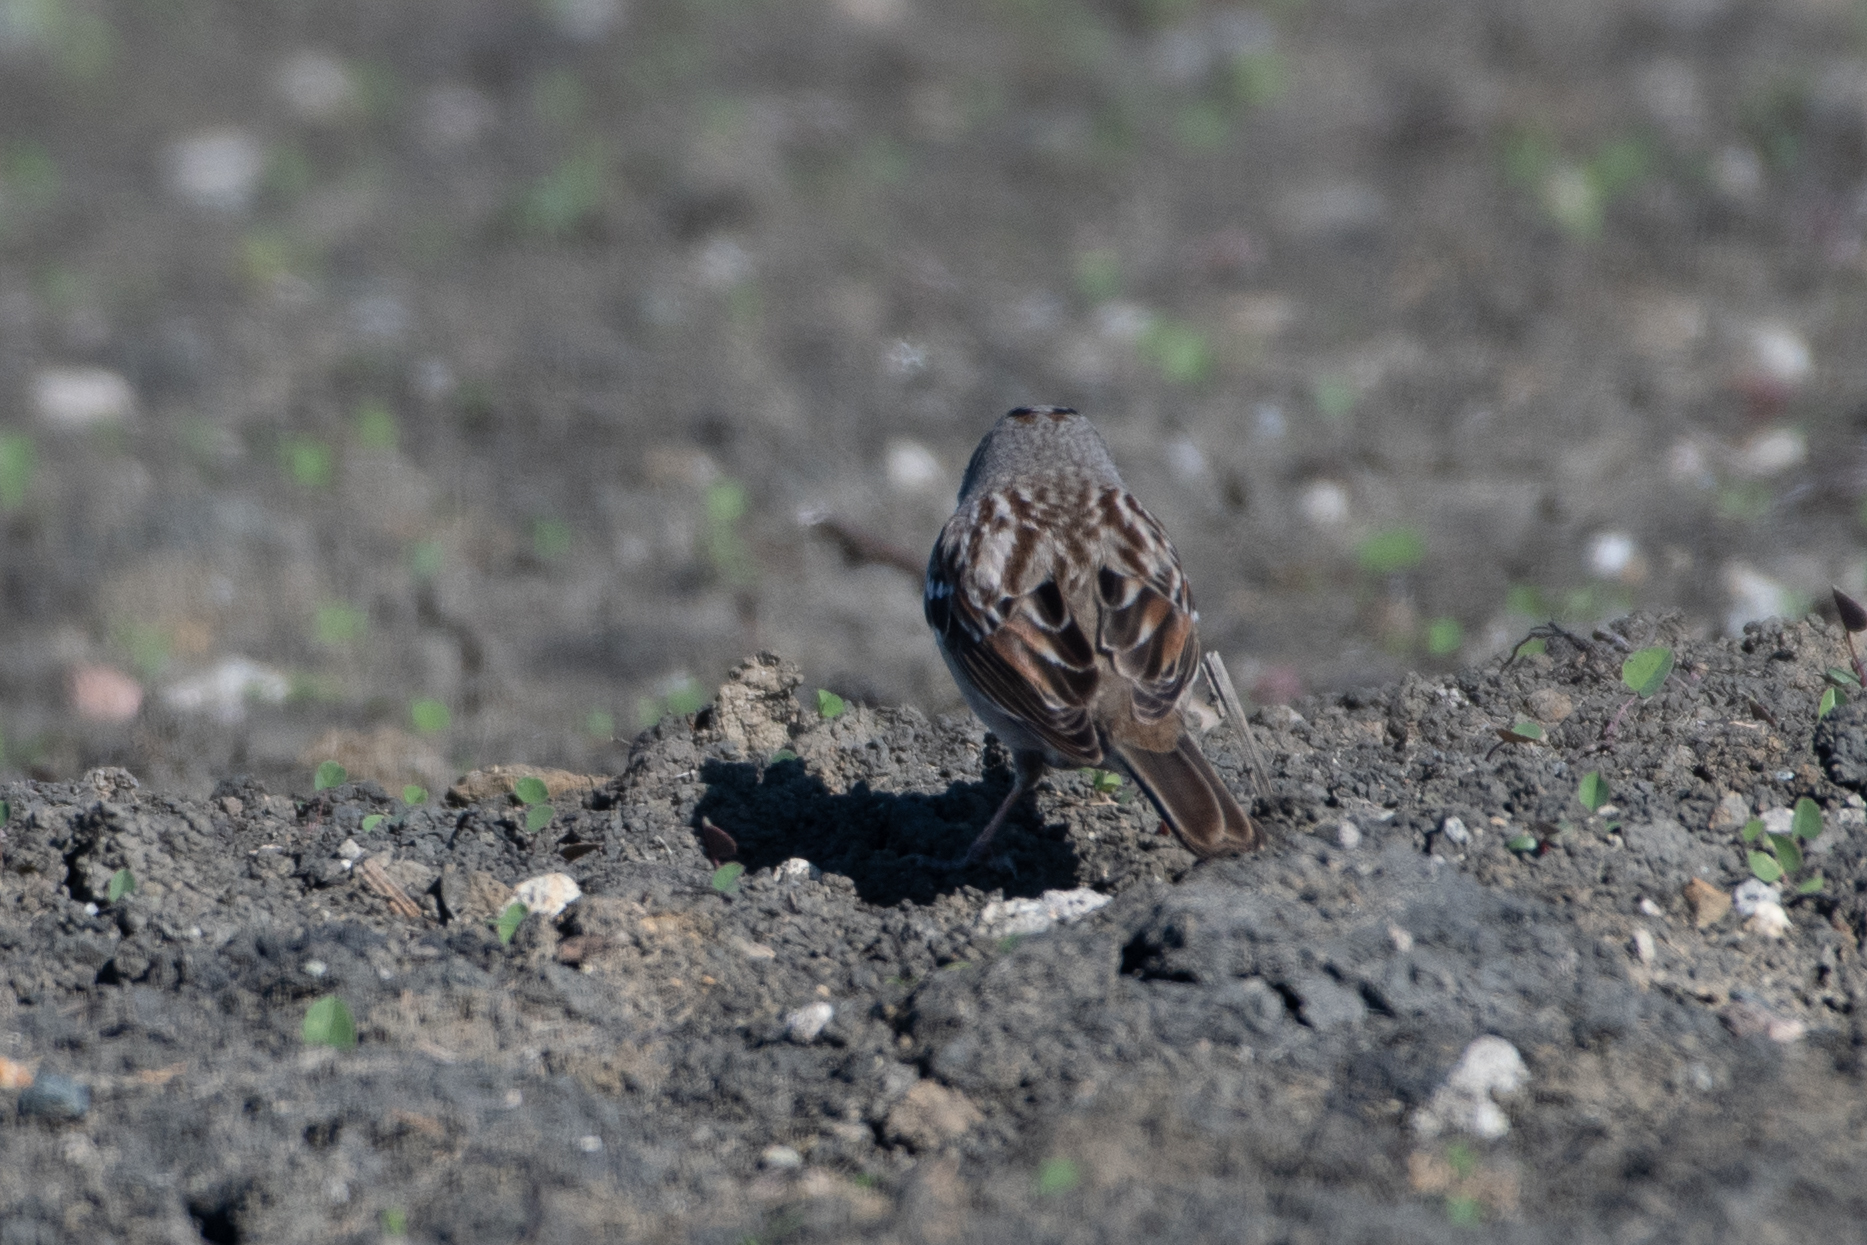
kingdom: Animalia
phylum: Chordata
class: Aves
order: Passeriformes
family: Passerellidae
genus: Zonotrichia
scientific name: Zonotrichia leucophrys
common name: White-crowned sparrow
